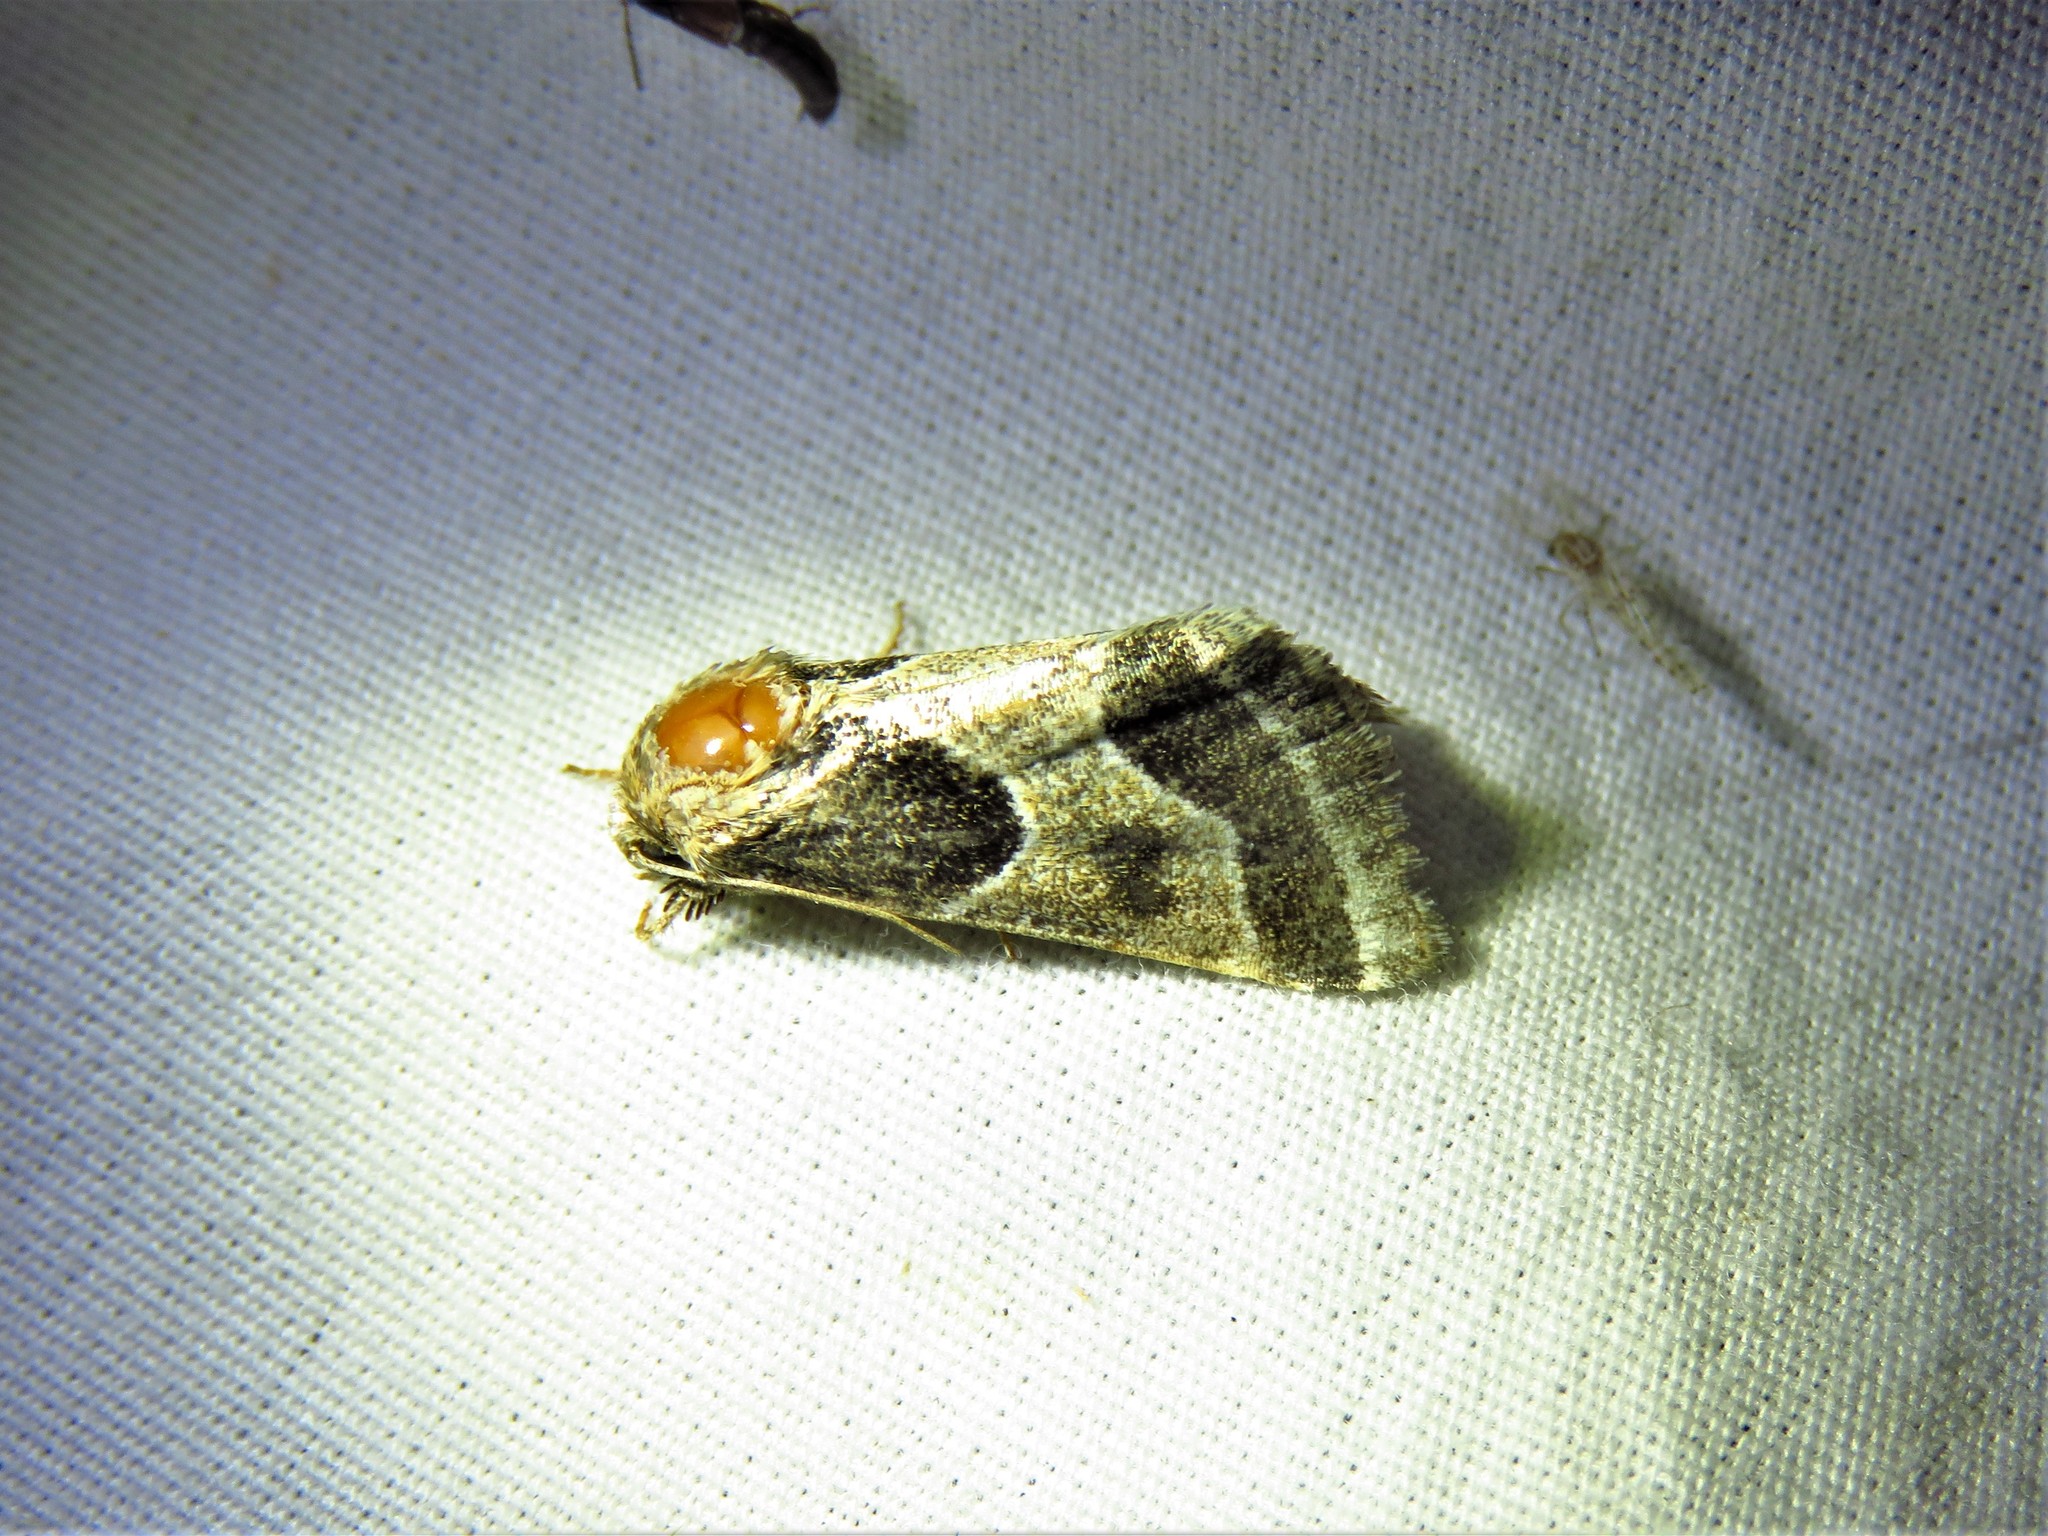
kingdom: Animalia
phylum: Arthropoda
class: Insecta
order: Lepidoptera
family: Noctuidae
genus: Schinia
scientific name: Schinia rivulosa
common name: Scarce meal-moth
